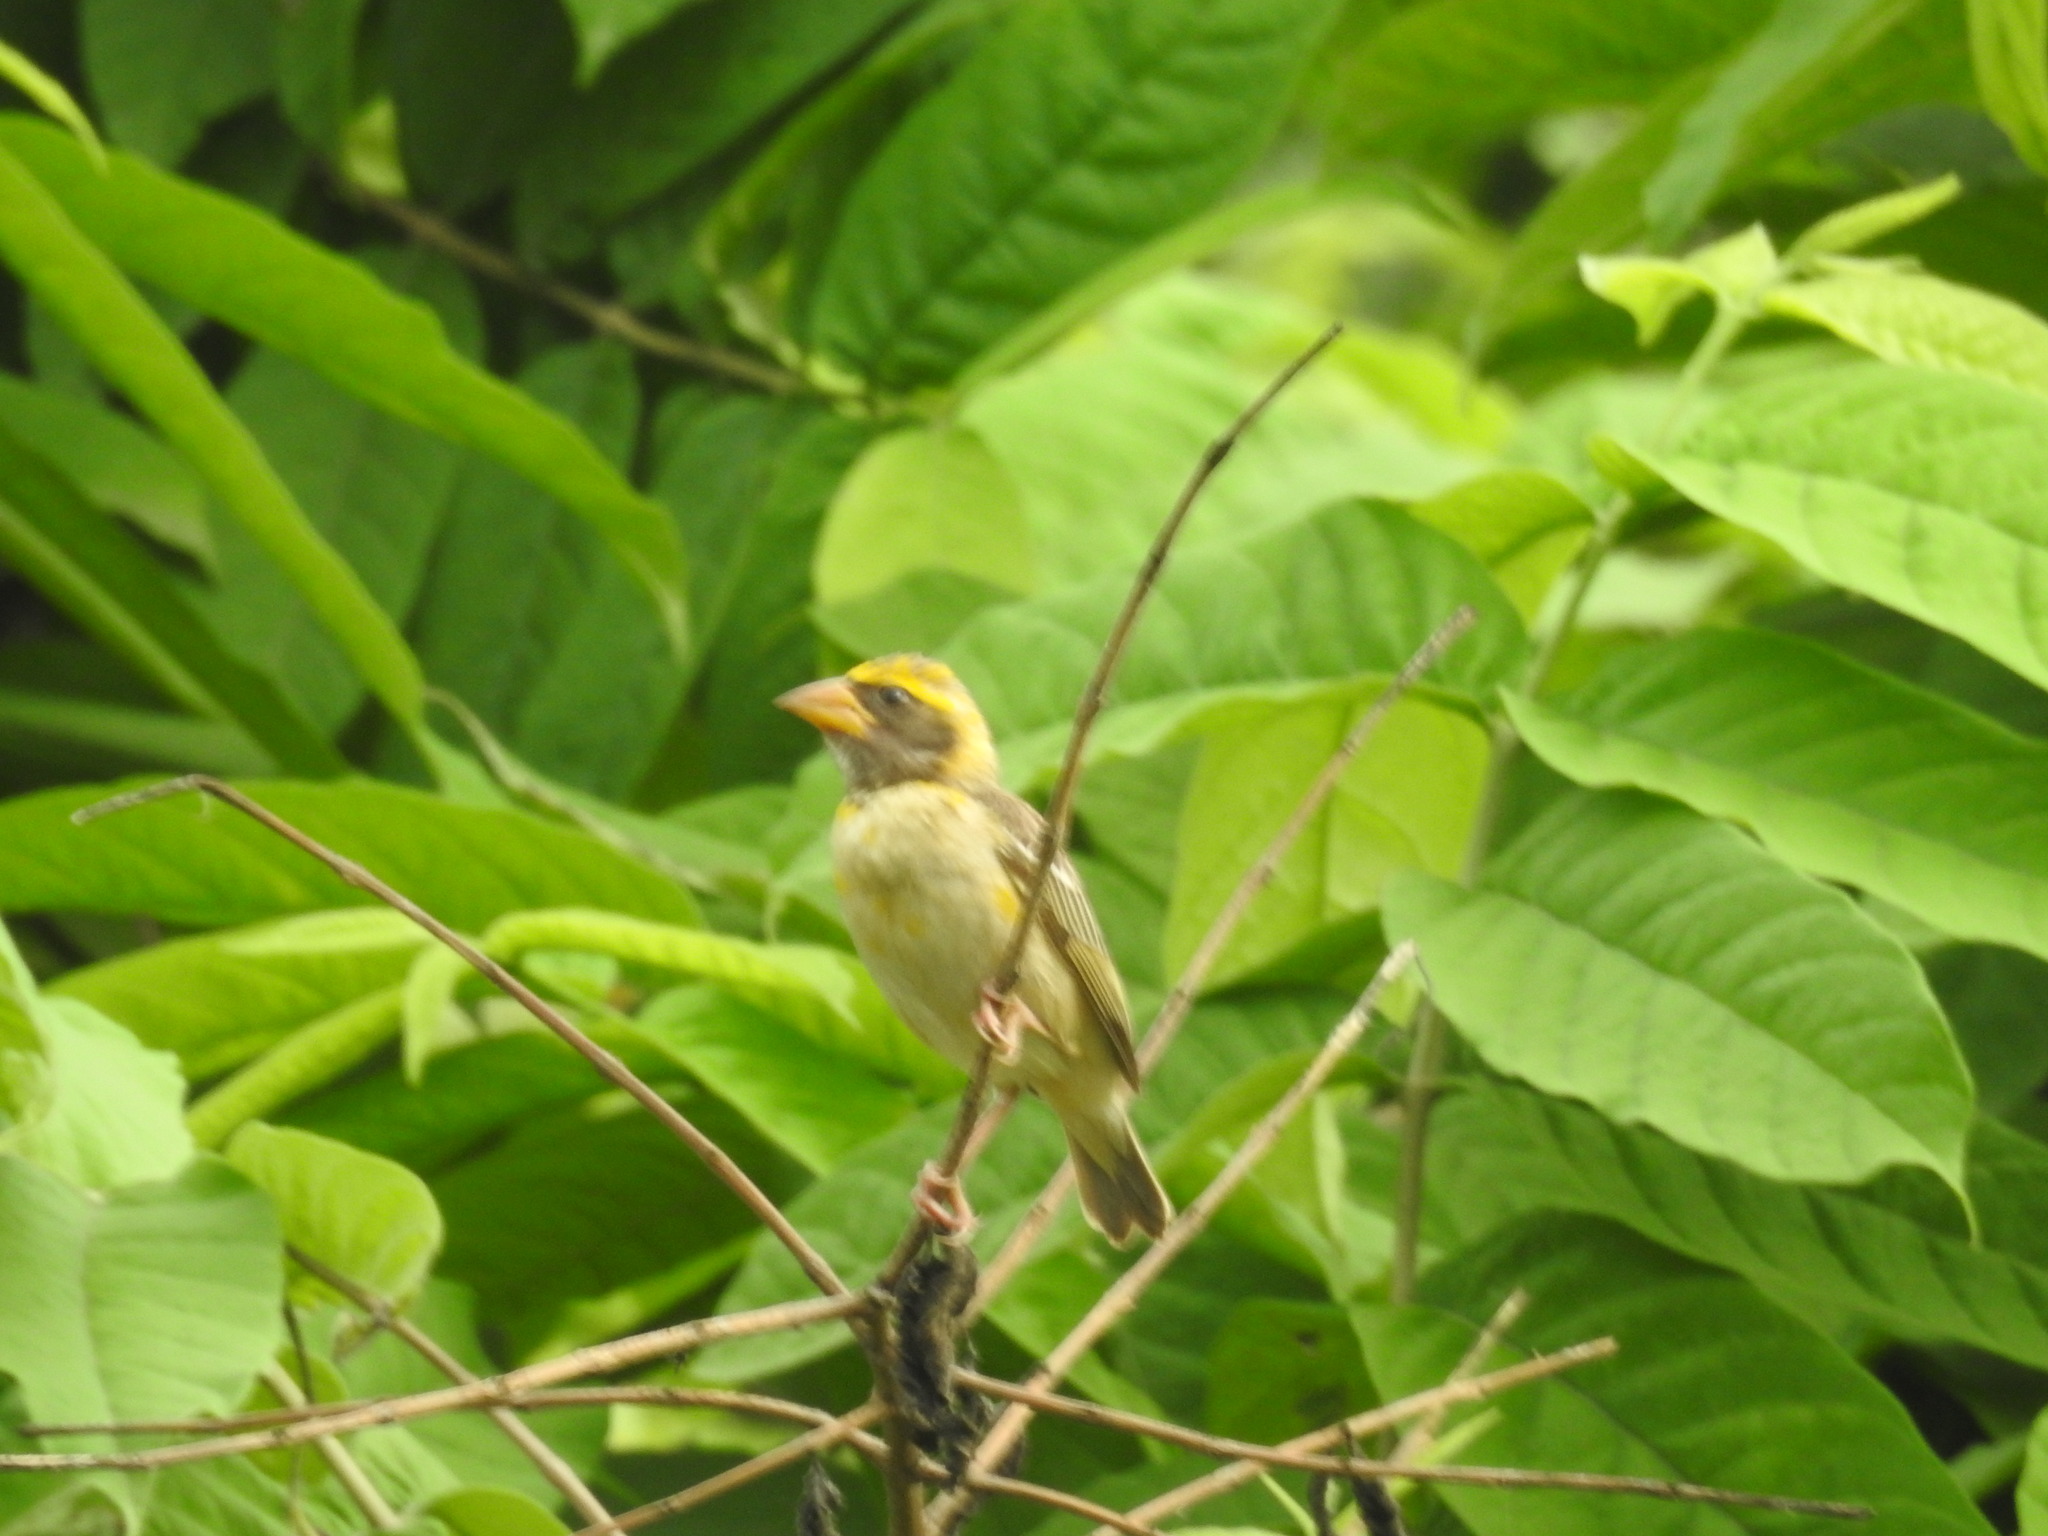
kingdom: Animalia
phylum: Chordata
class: Aves
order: Passeriformes
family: Ploceidae
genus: Ploceus
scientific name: Ploceus philippinus
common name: Baya weaver
